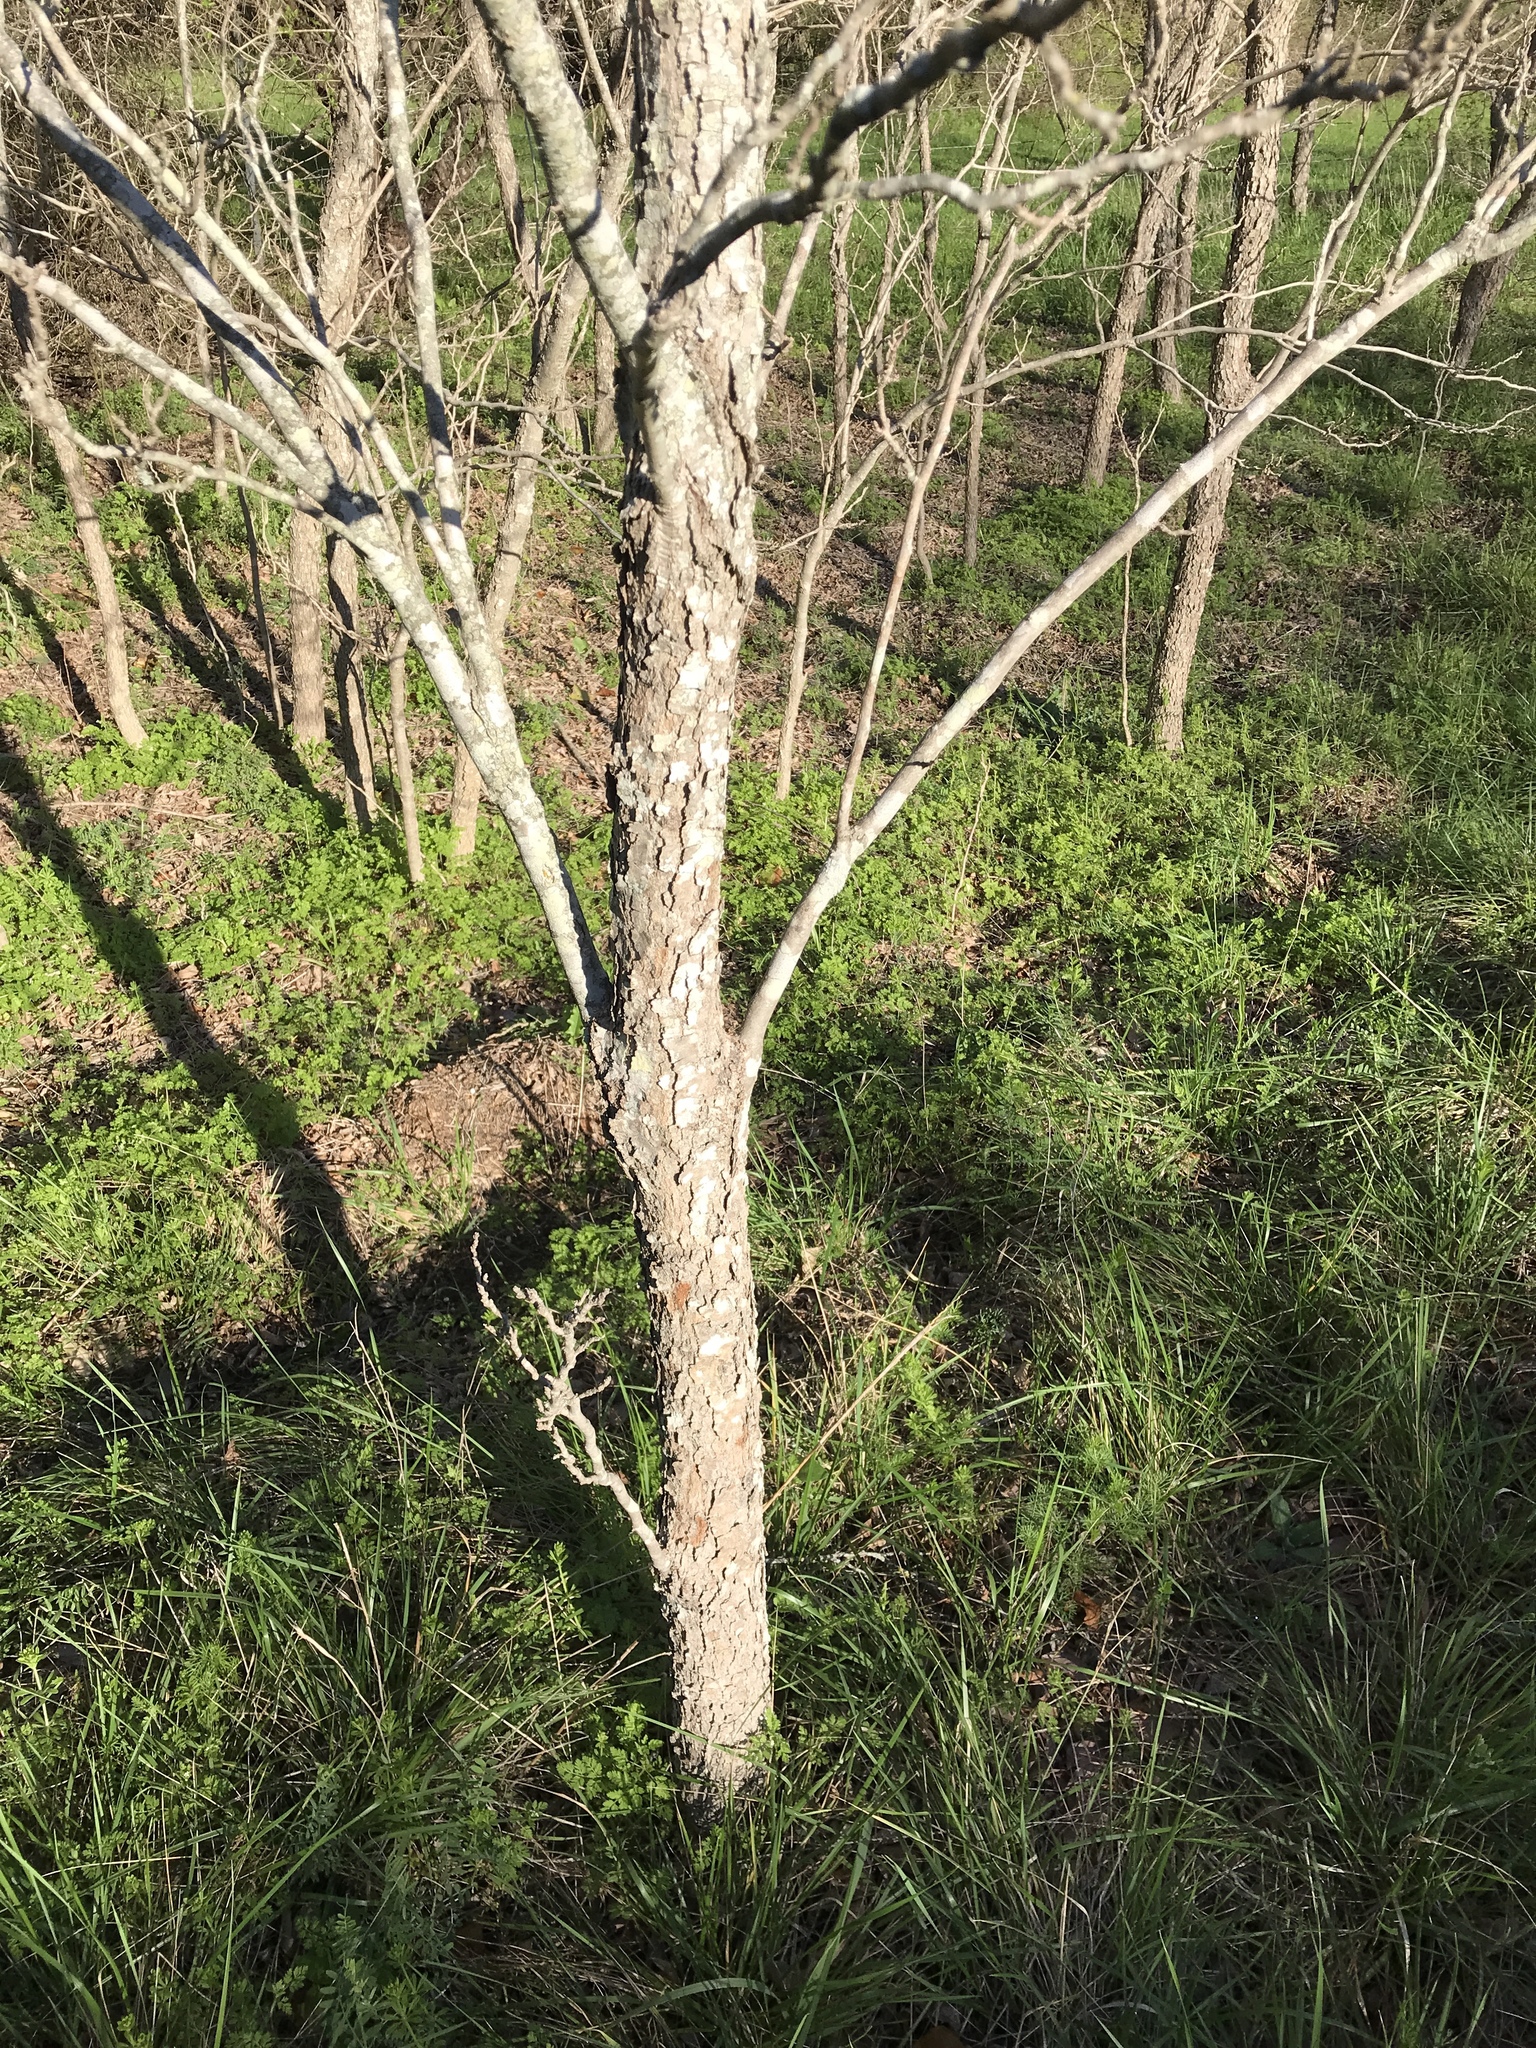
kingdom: Plantae
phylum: Tracheophyta
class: Magnoliopsida
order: Sapindales
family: Sapindaceae
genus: Sapindus
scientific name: Sapindus drummondii
